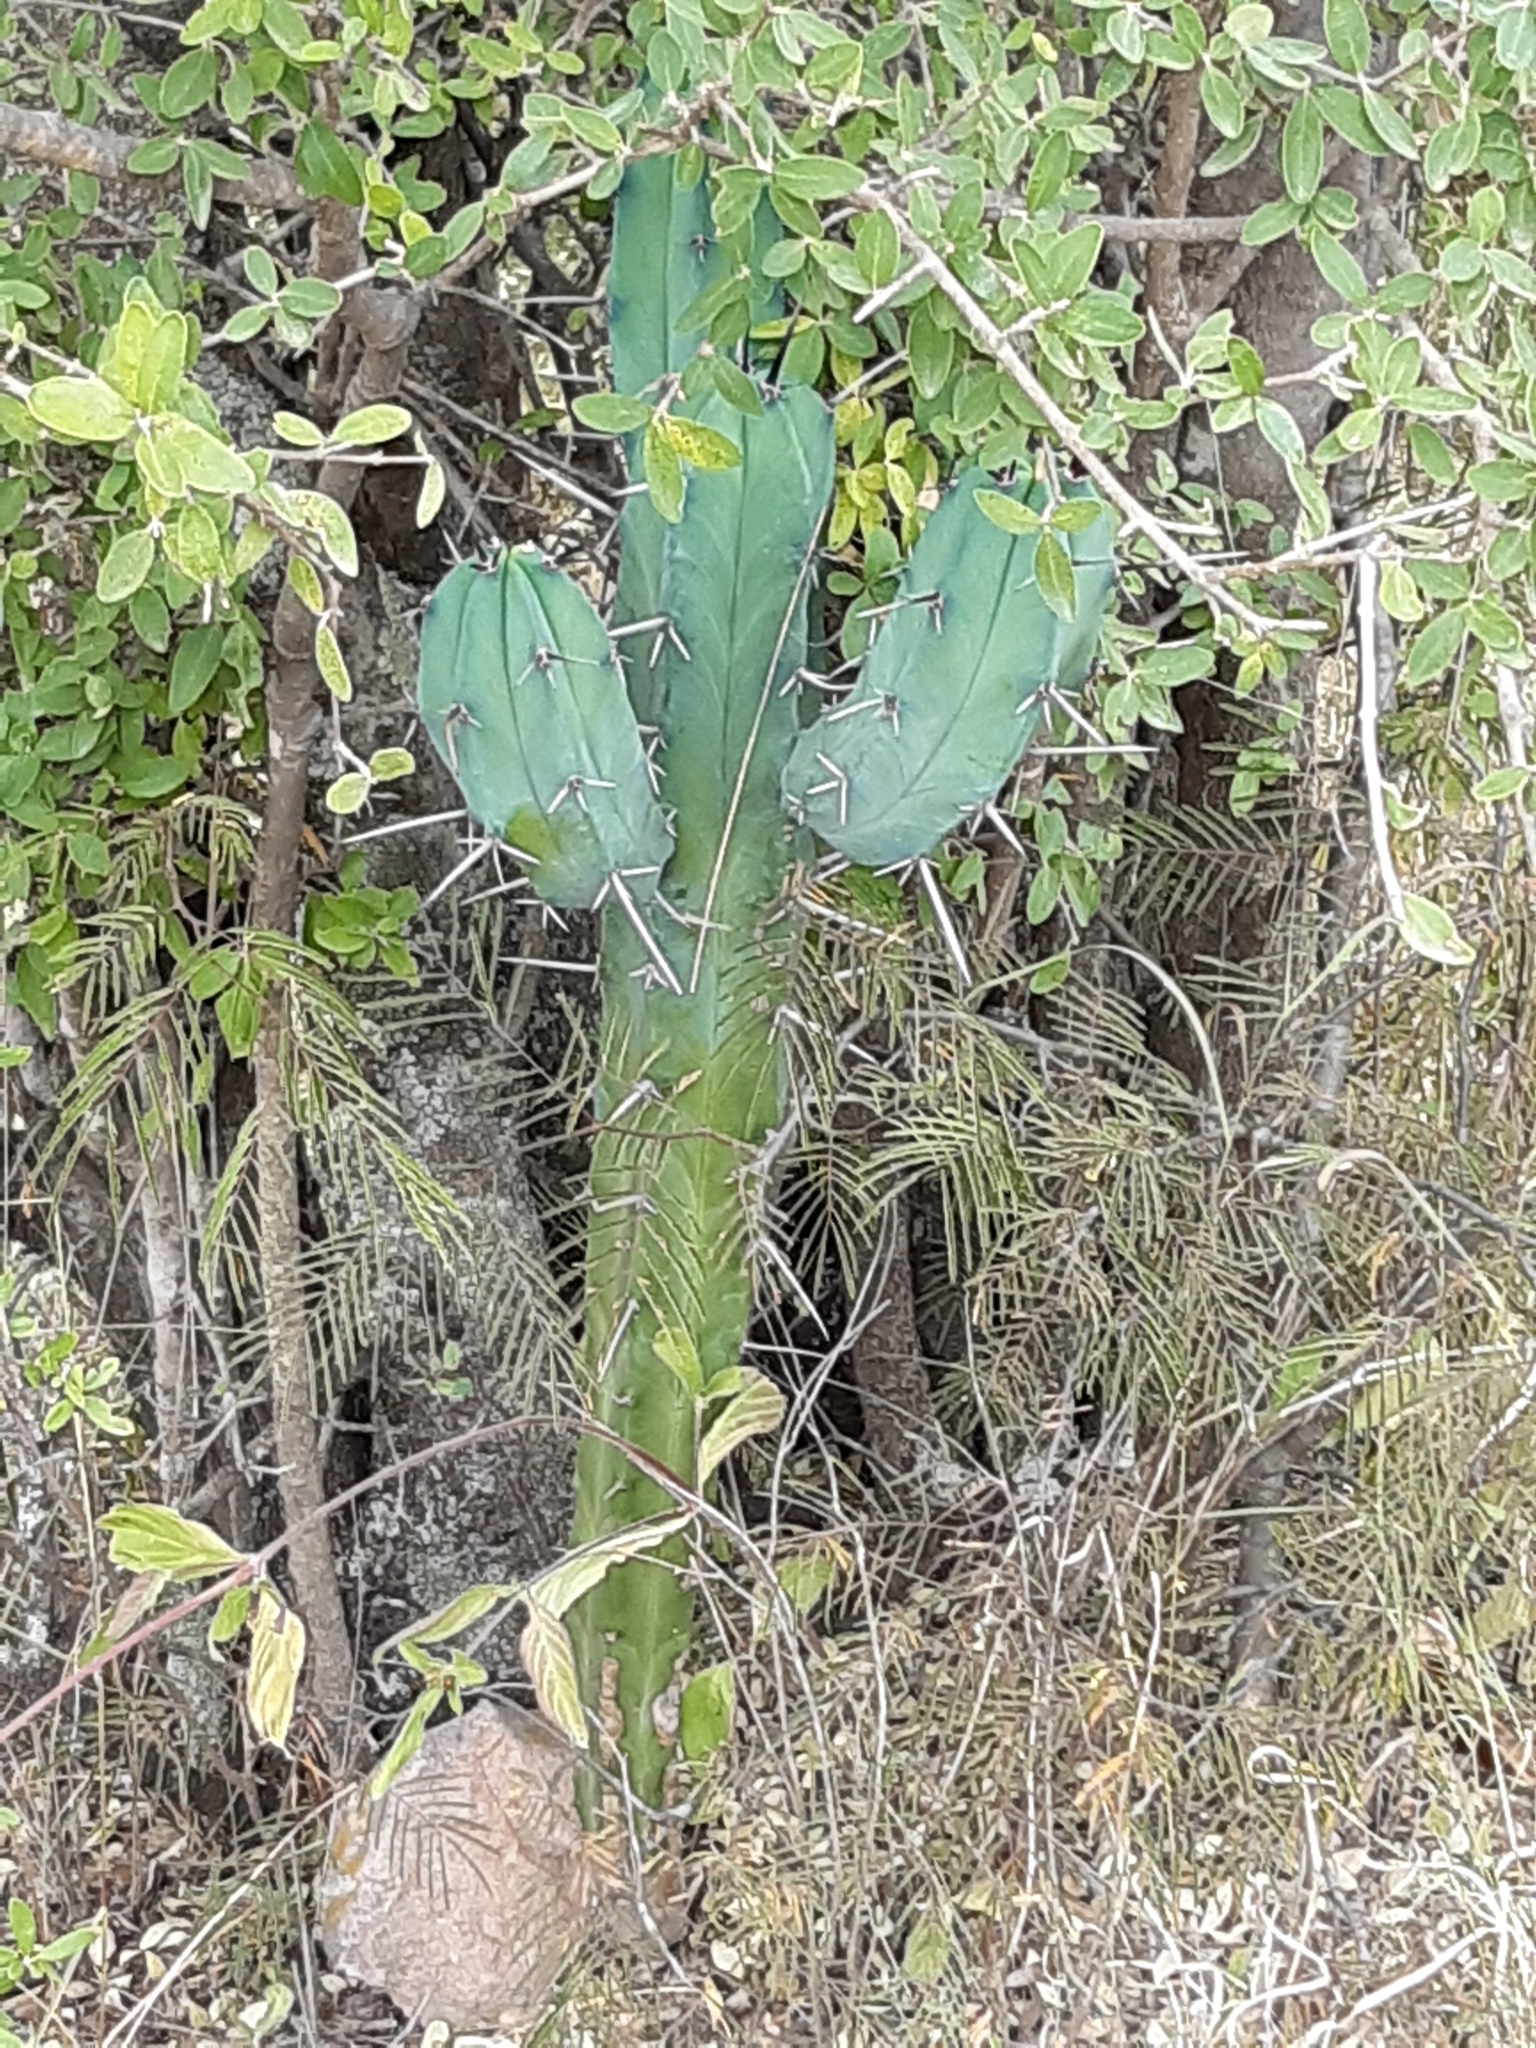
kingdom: Plantae
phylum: Tracheophyta
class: Magnoliopsida
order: Caryophyllales
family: Cactaceae
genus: Myrtillocactus
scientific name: Myrtillocactus geometrizans
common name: Bilberry cactus
